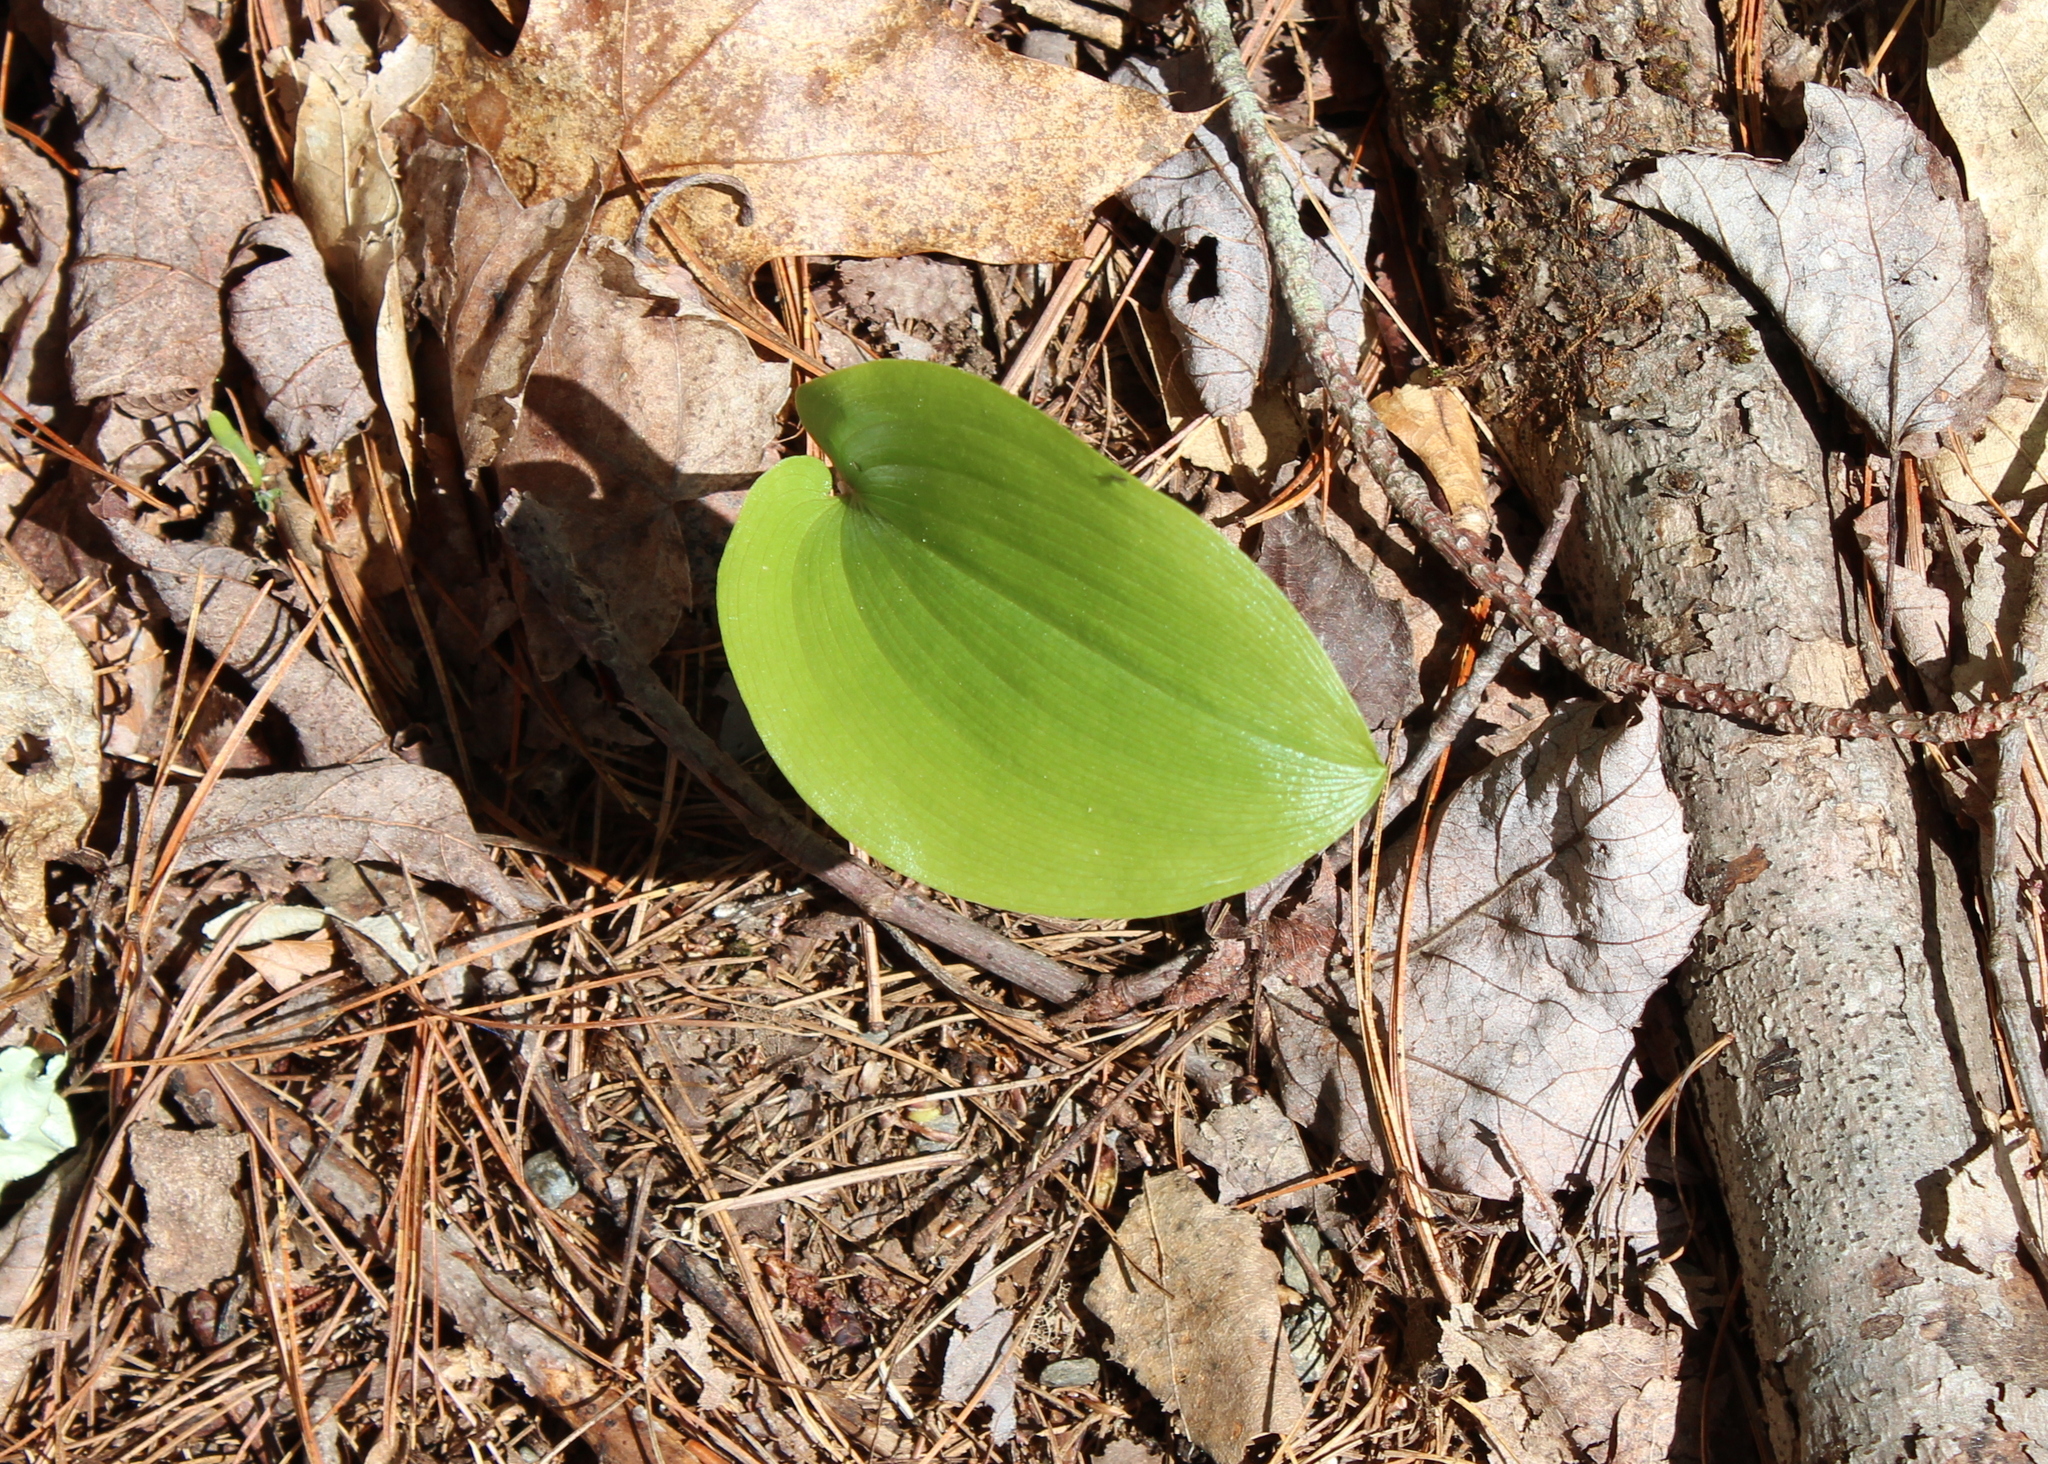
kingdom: Plantae
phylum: Tracheophyta
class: Liliopsida
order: Asparagales
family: Asparagaceae
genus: Maianthemum
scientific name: Maianthemum canadense
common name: False lily-of-the-valley
